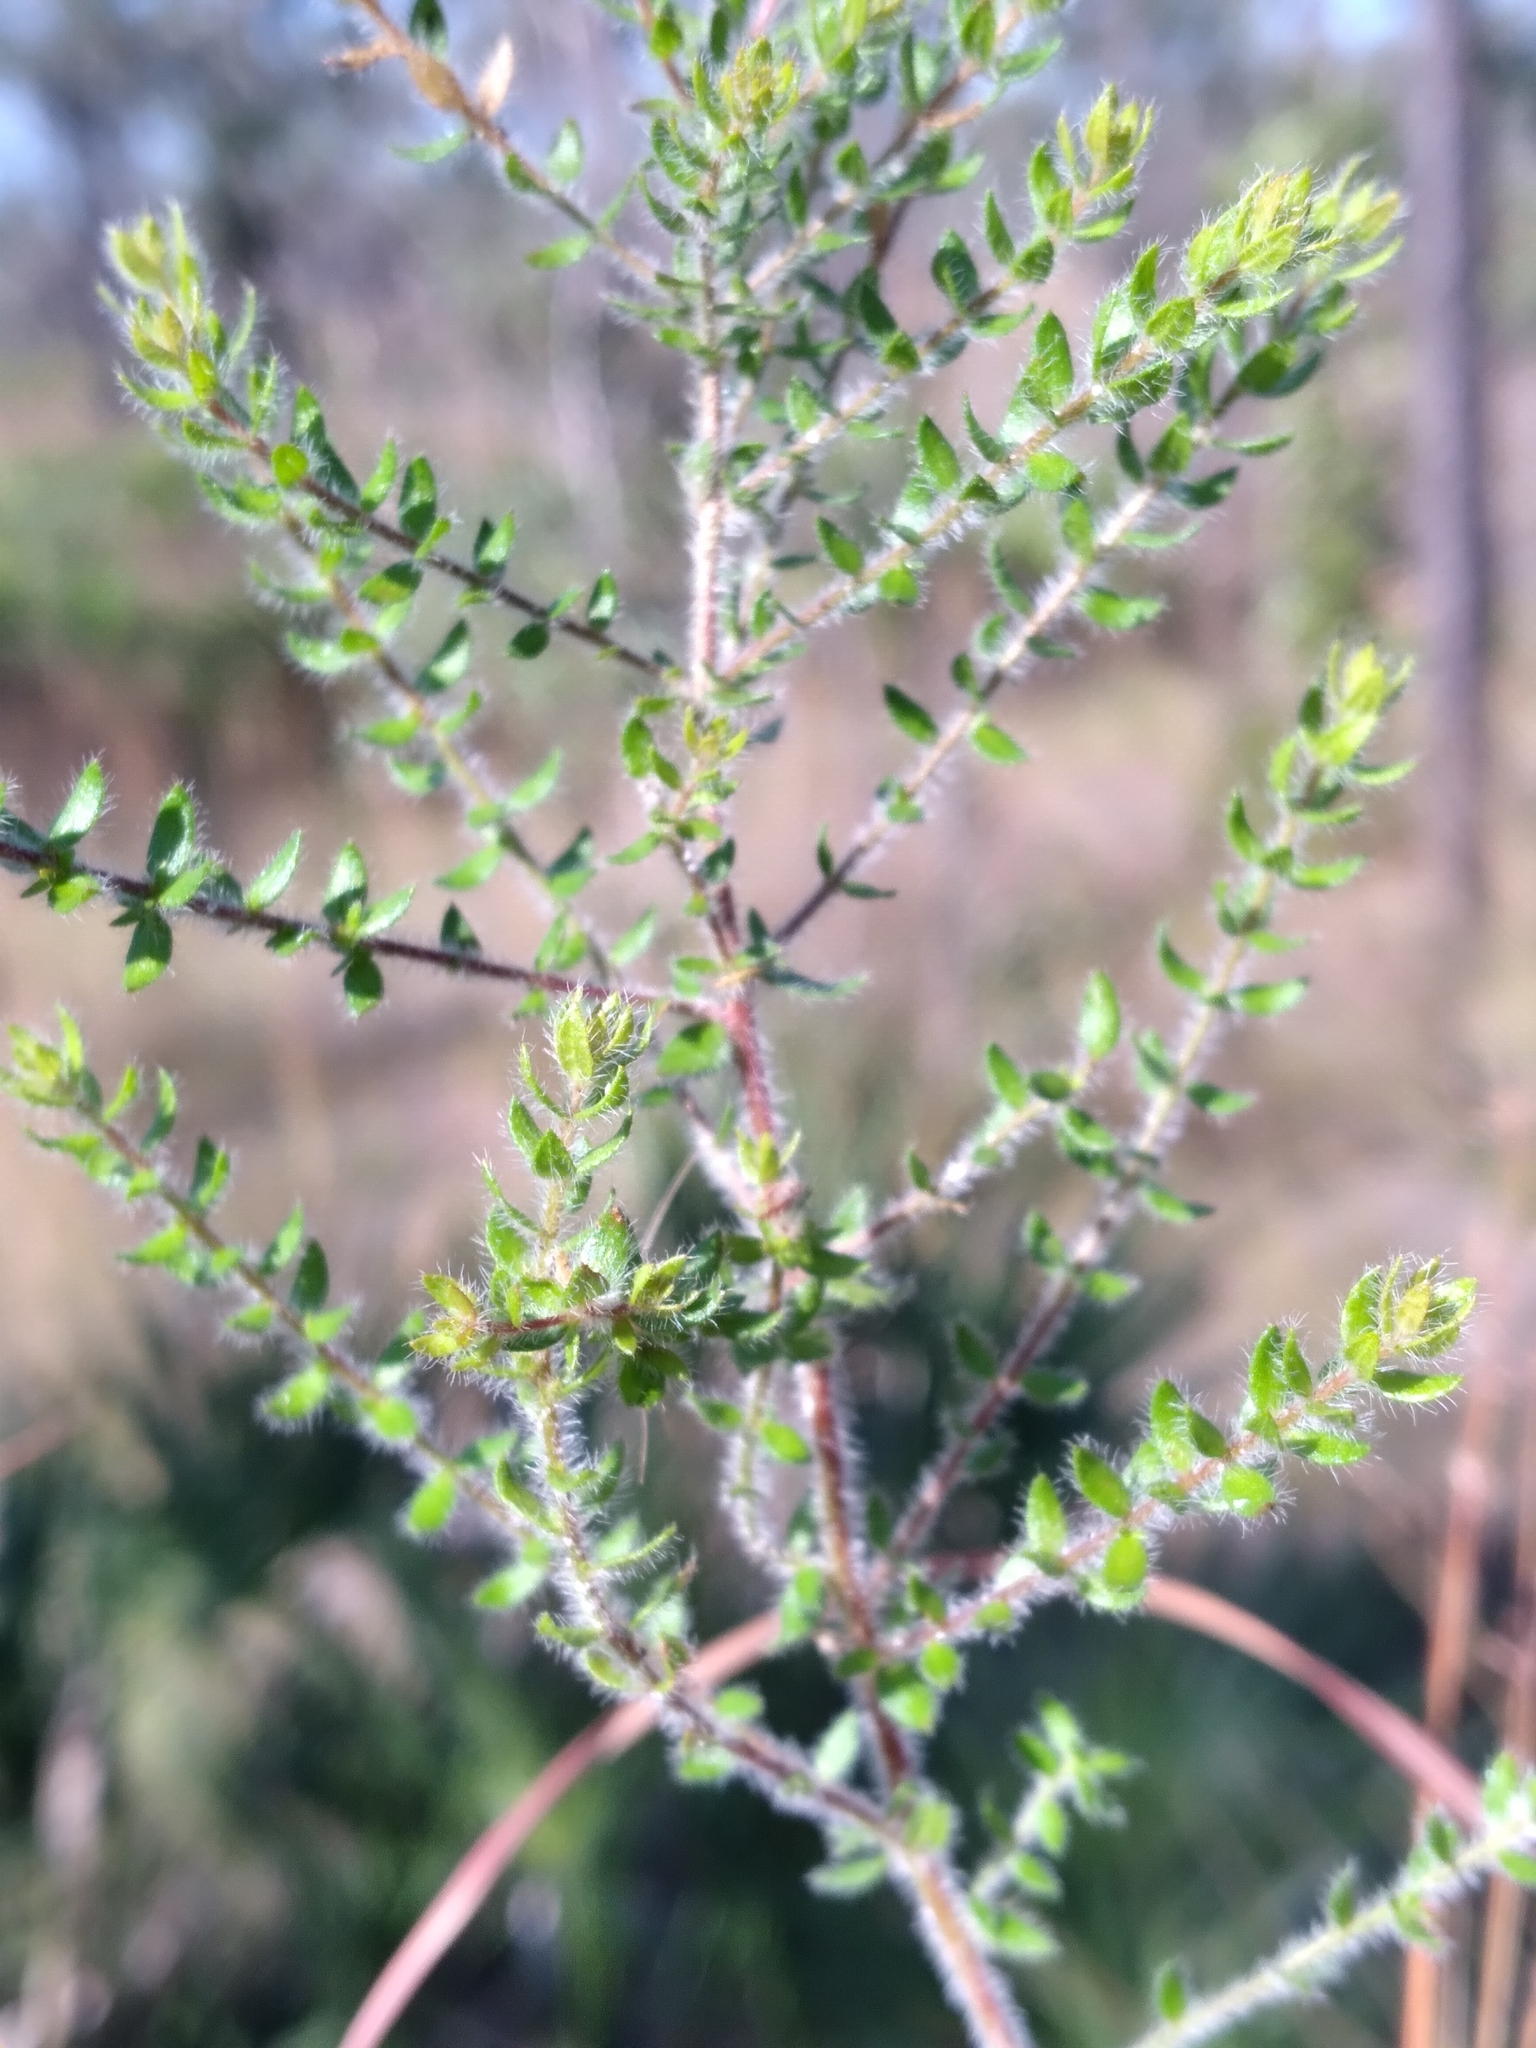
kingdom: Plantae
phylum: Tracheophyta
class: Magnoliopsida
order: Malvales
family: Cistaceae
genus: Lechea
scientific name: Lechea divaricata
